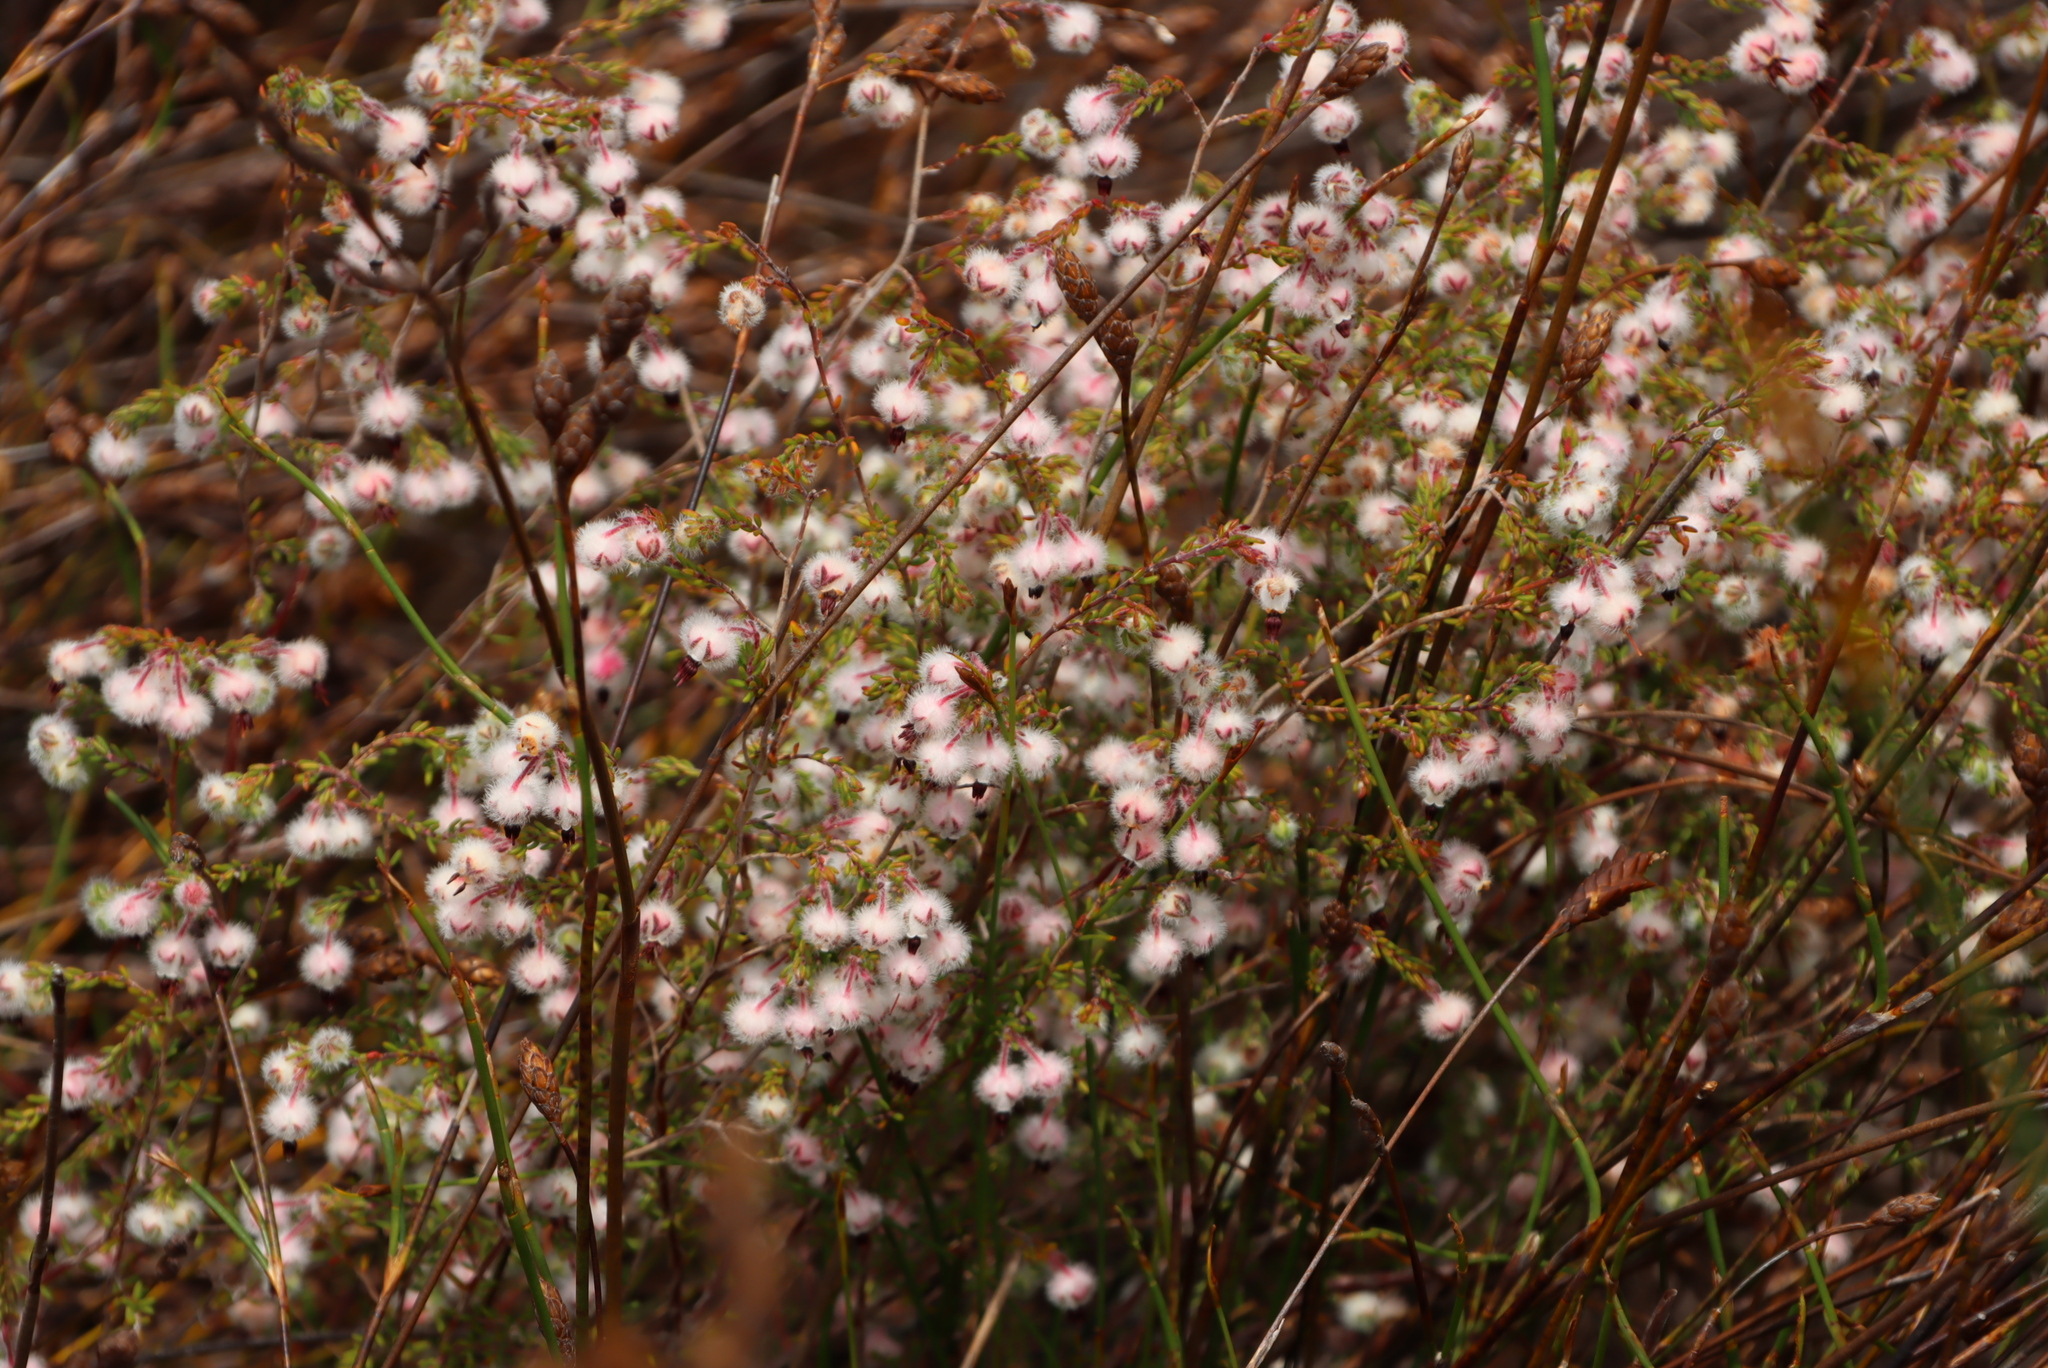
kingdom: Plantae
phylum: Tracheophyta
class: Magnoliopsida
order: Ericales
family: Ericaceae
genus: Erica
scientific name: Erica bruniades
